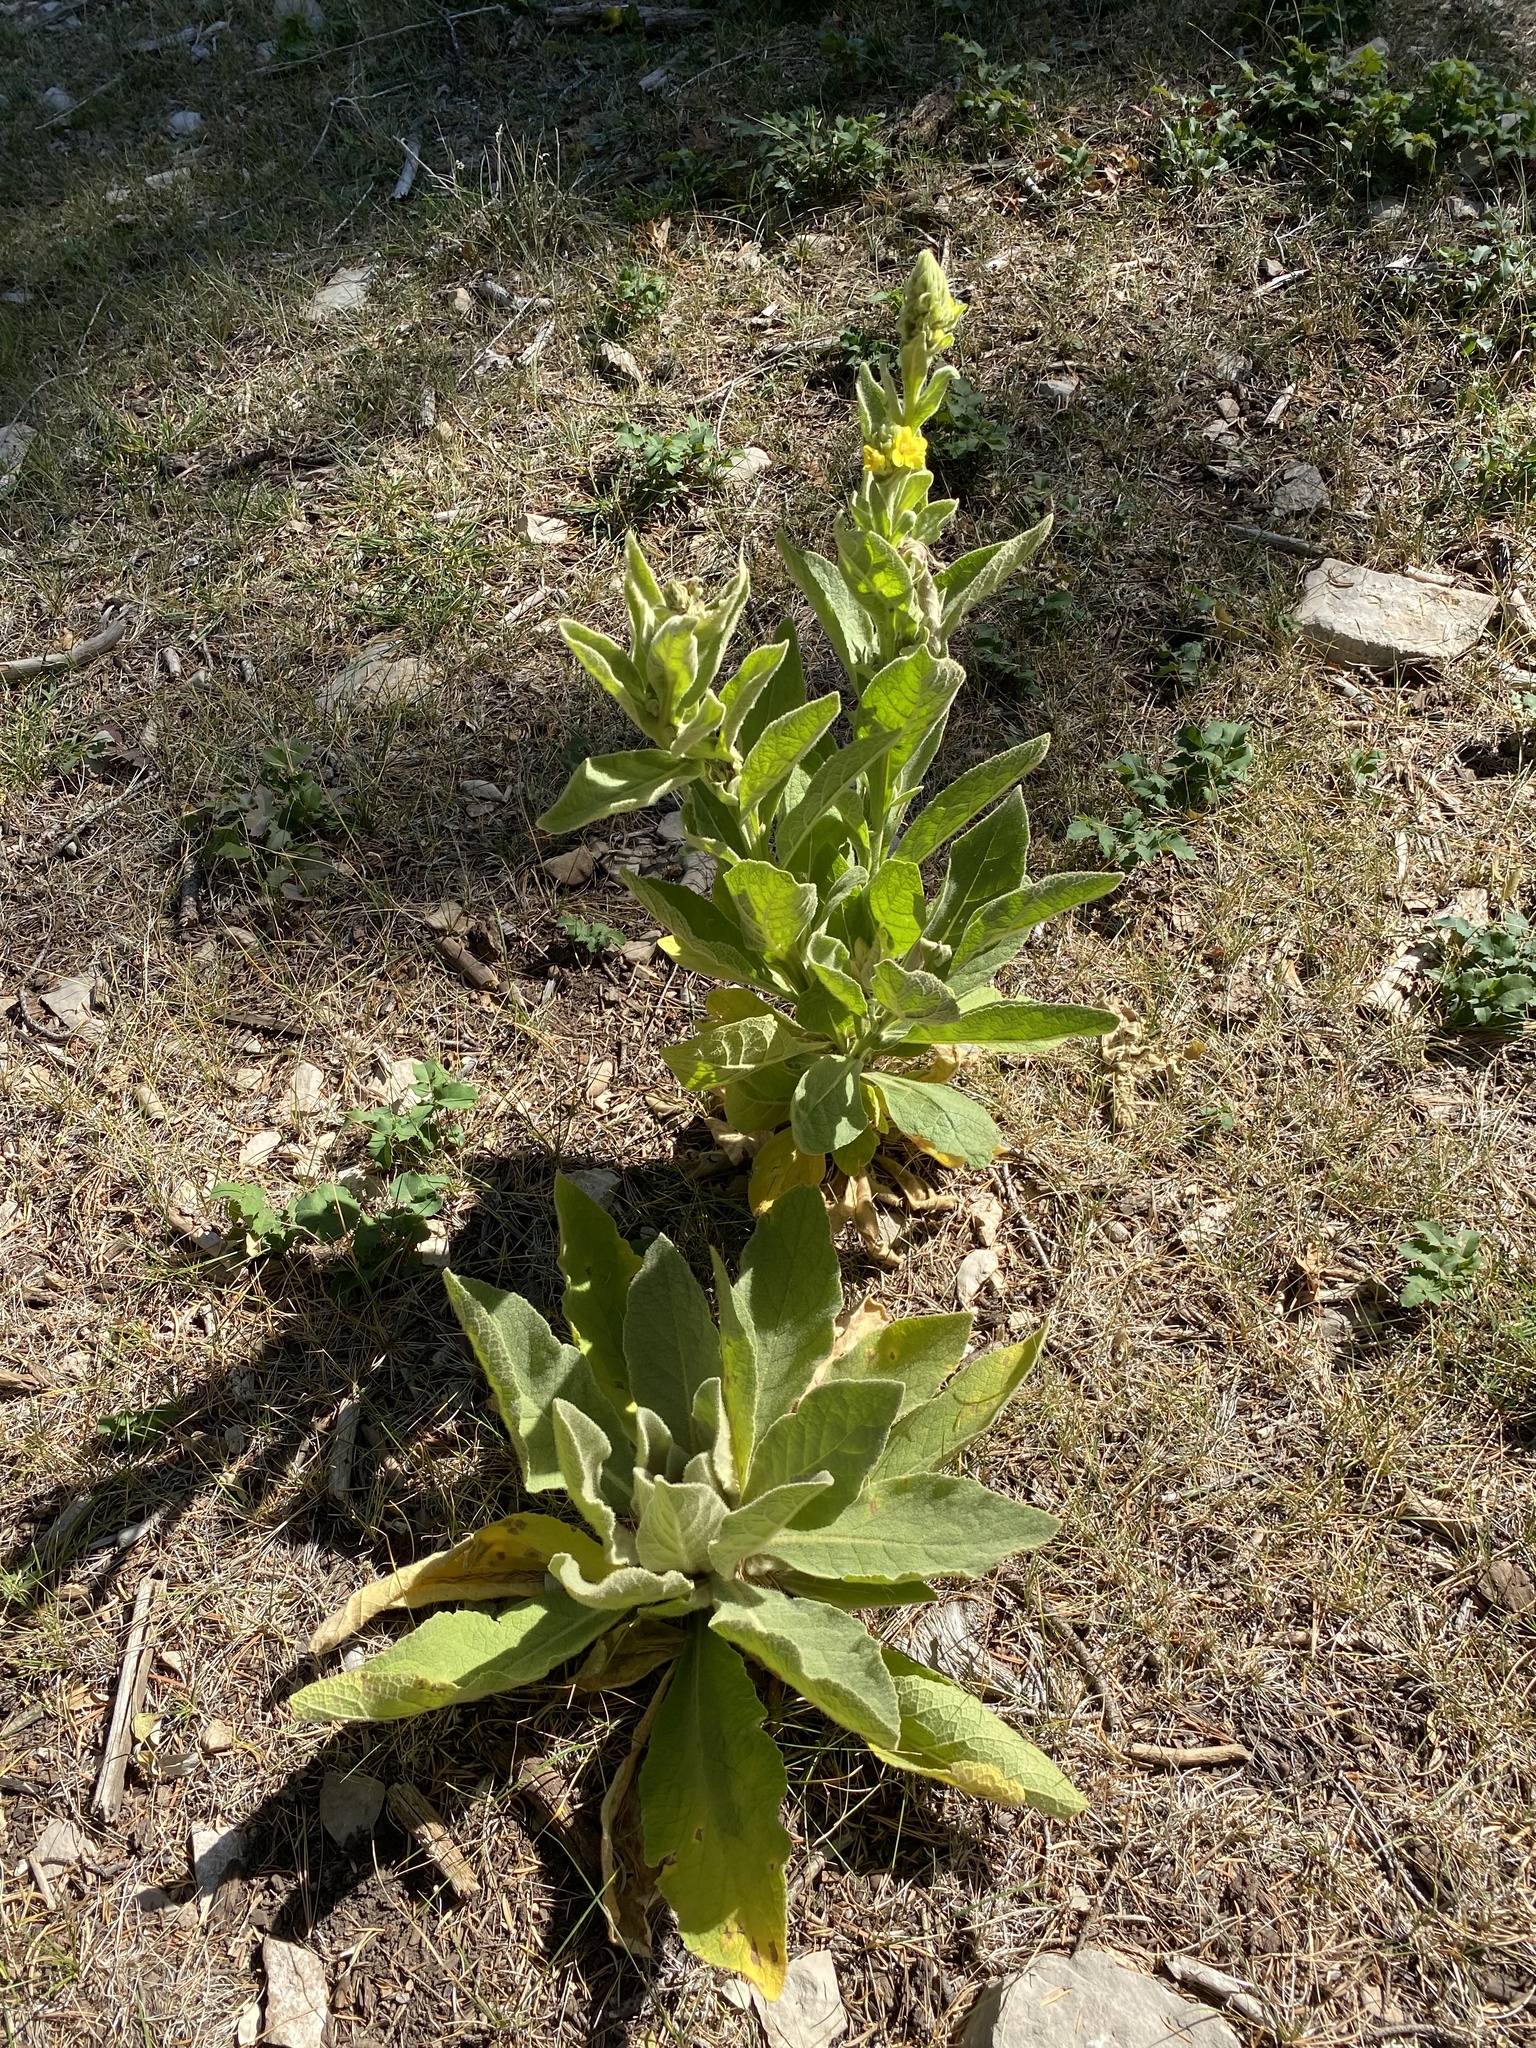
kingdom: Plantae
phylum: Tracheophyta
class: Magnoliopsida
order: Lamiales
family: Scrophulariaceae
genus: Verbascum
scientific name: Verbascum thapsus
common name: Common mullein
